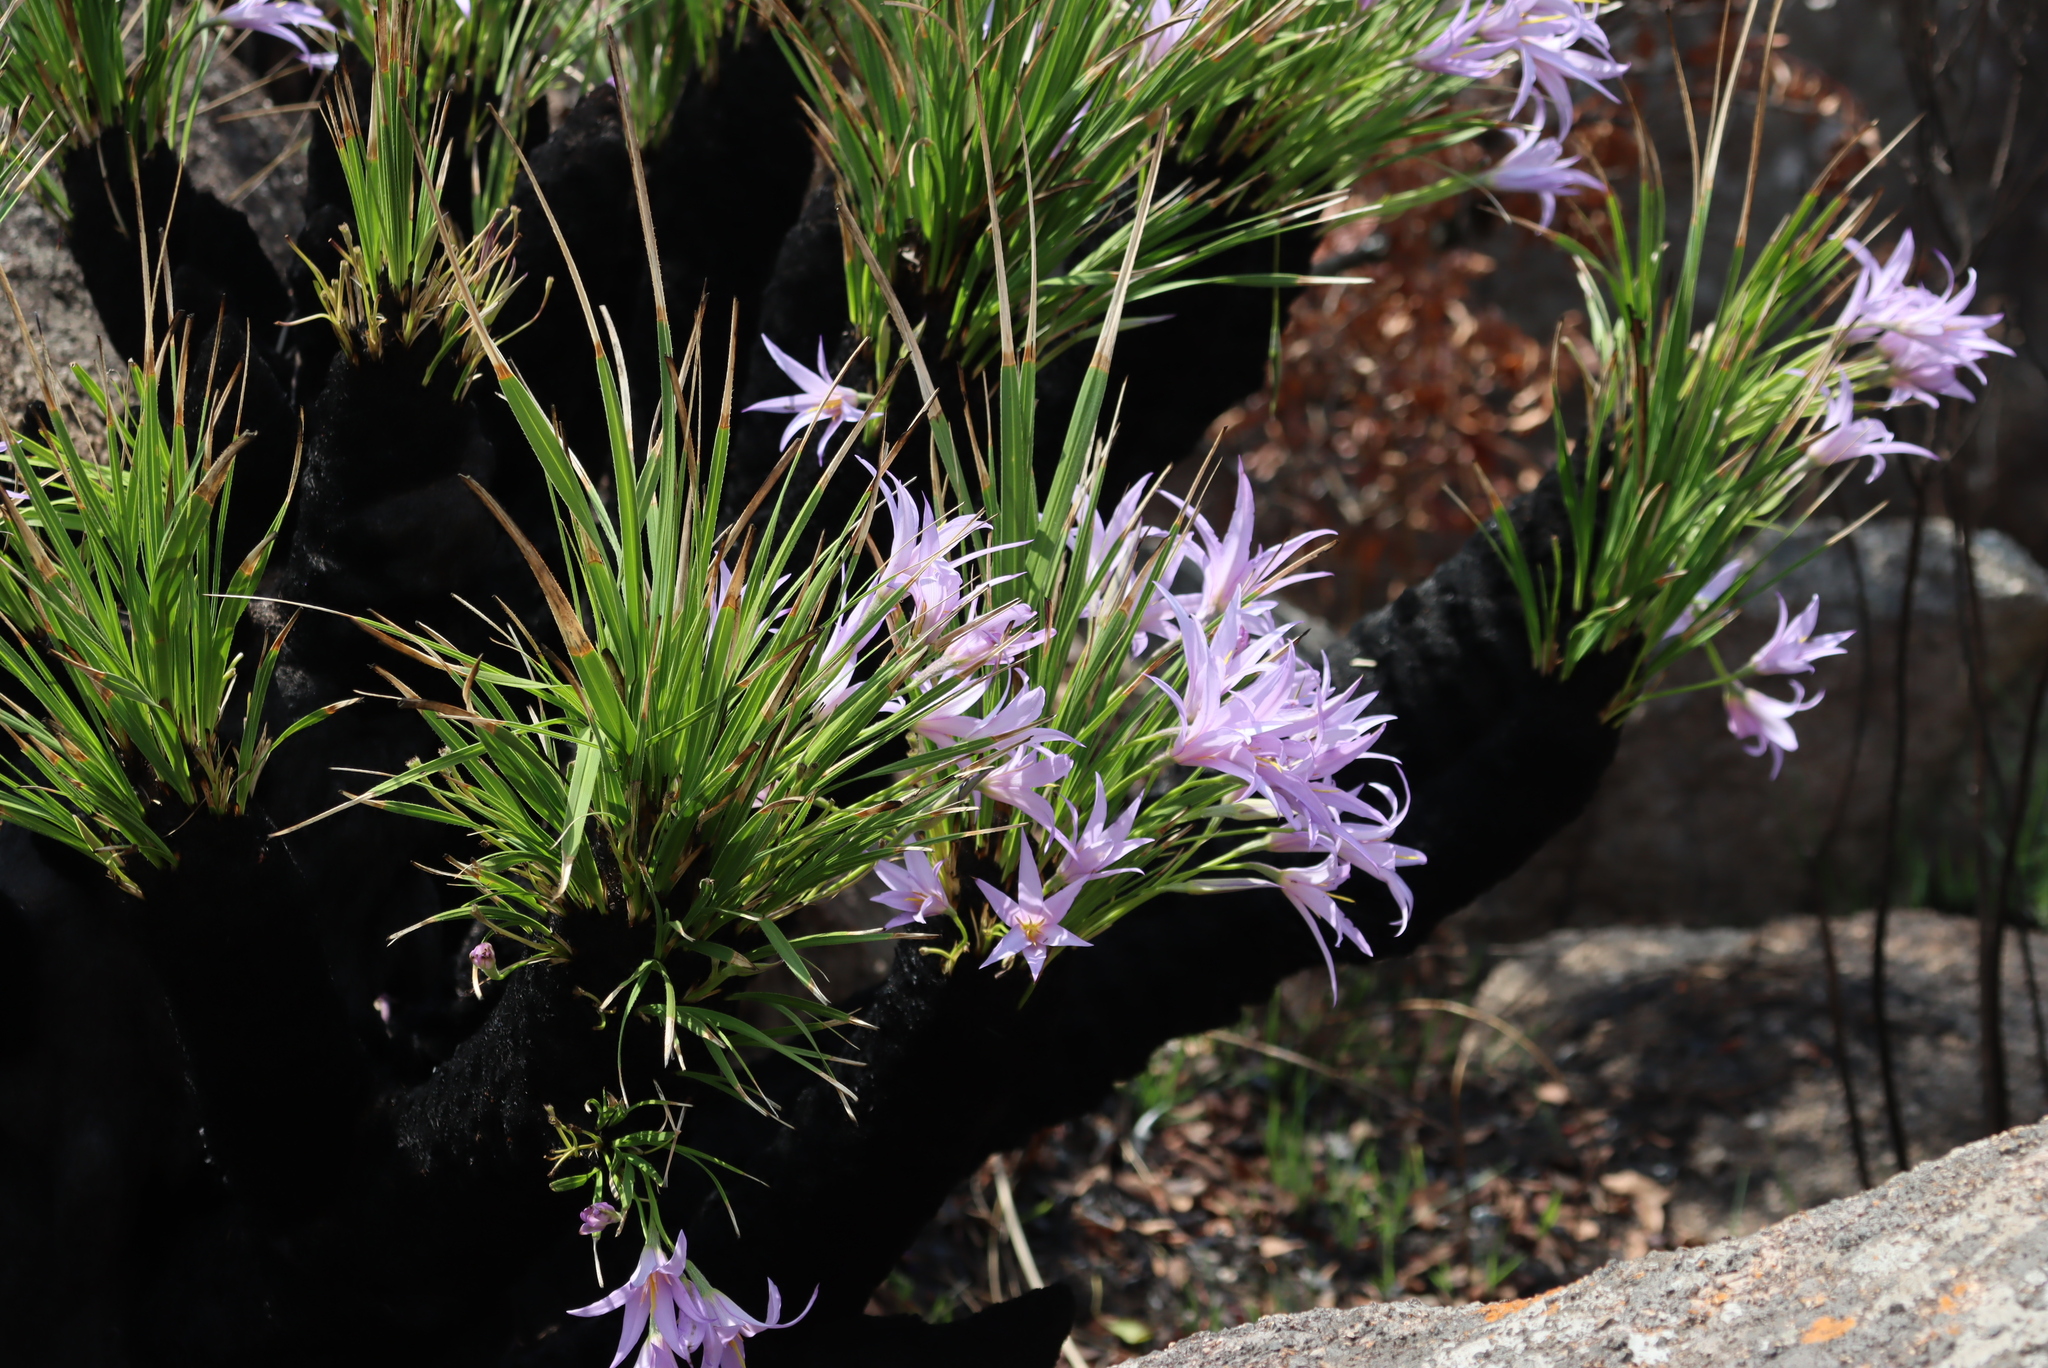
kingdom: Plantae
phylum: Tracheophyta
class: Liliopsida
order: Pandanales
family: Velloziaceae
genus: Xerophyta
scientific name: Xerophyta retinervis
